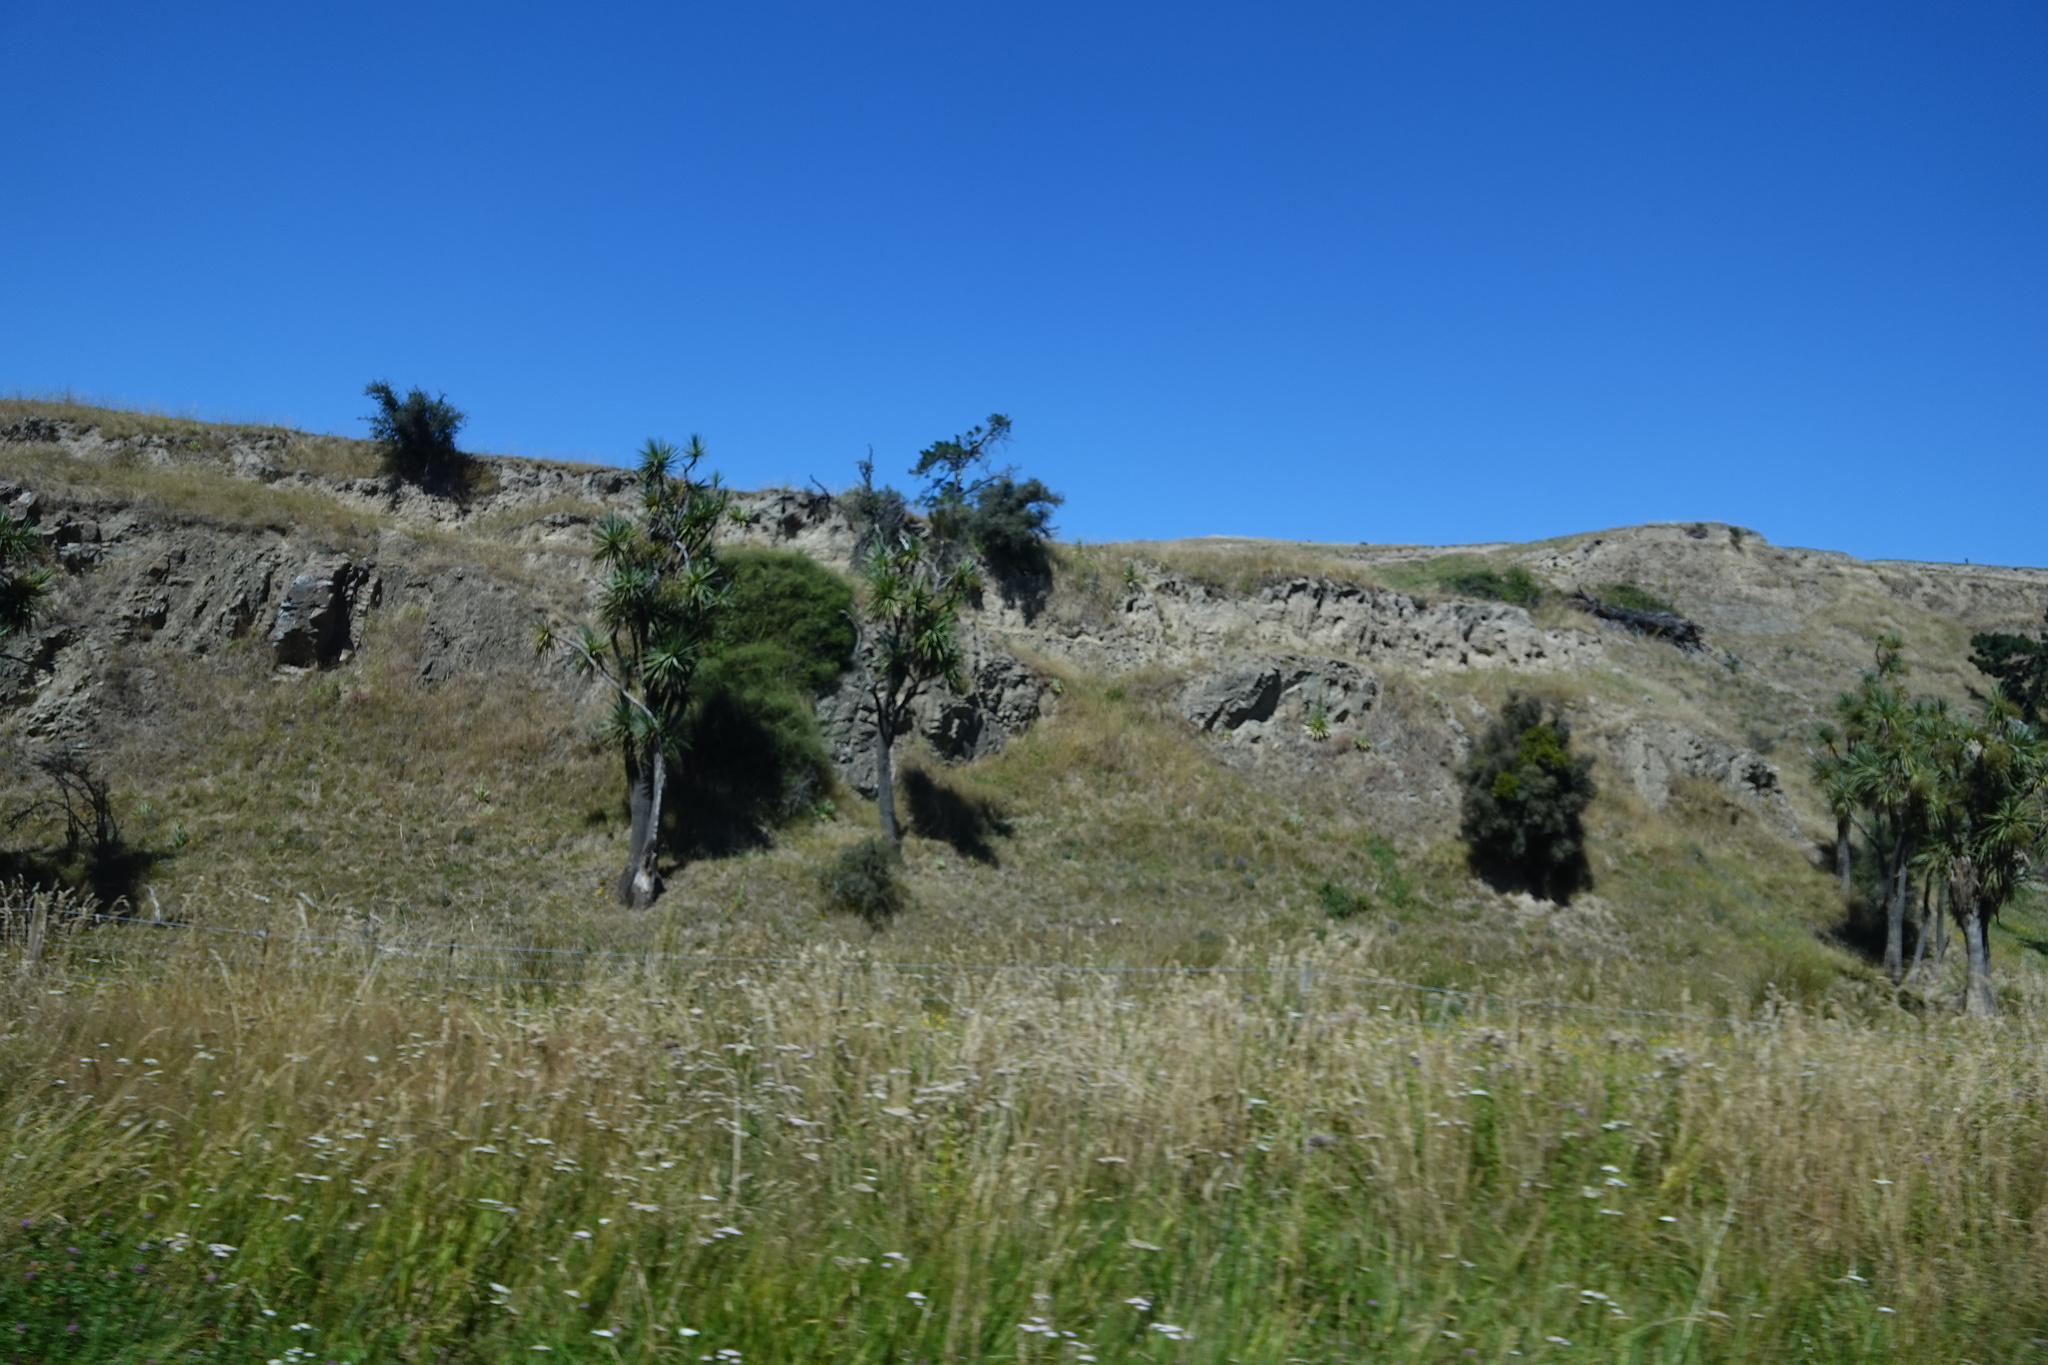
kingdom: Plantae
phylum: Tracheophyta
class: Liliopsida
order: Asparagales
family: Asparagaceae
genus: Cordyline
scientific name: Cordyline australis
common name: Cabbage-palm
